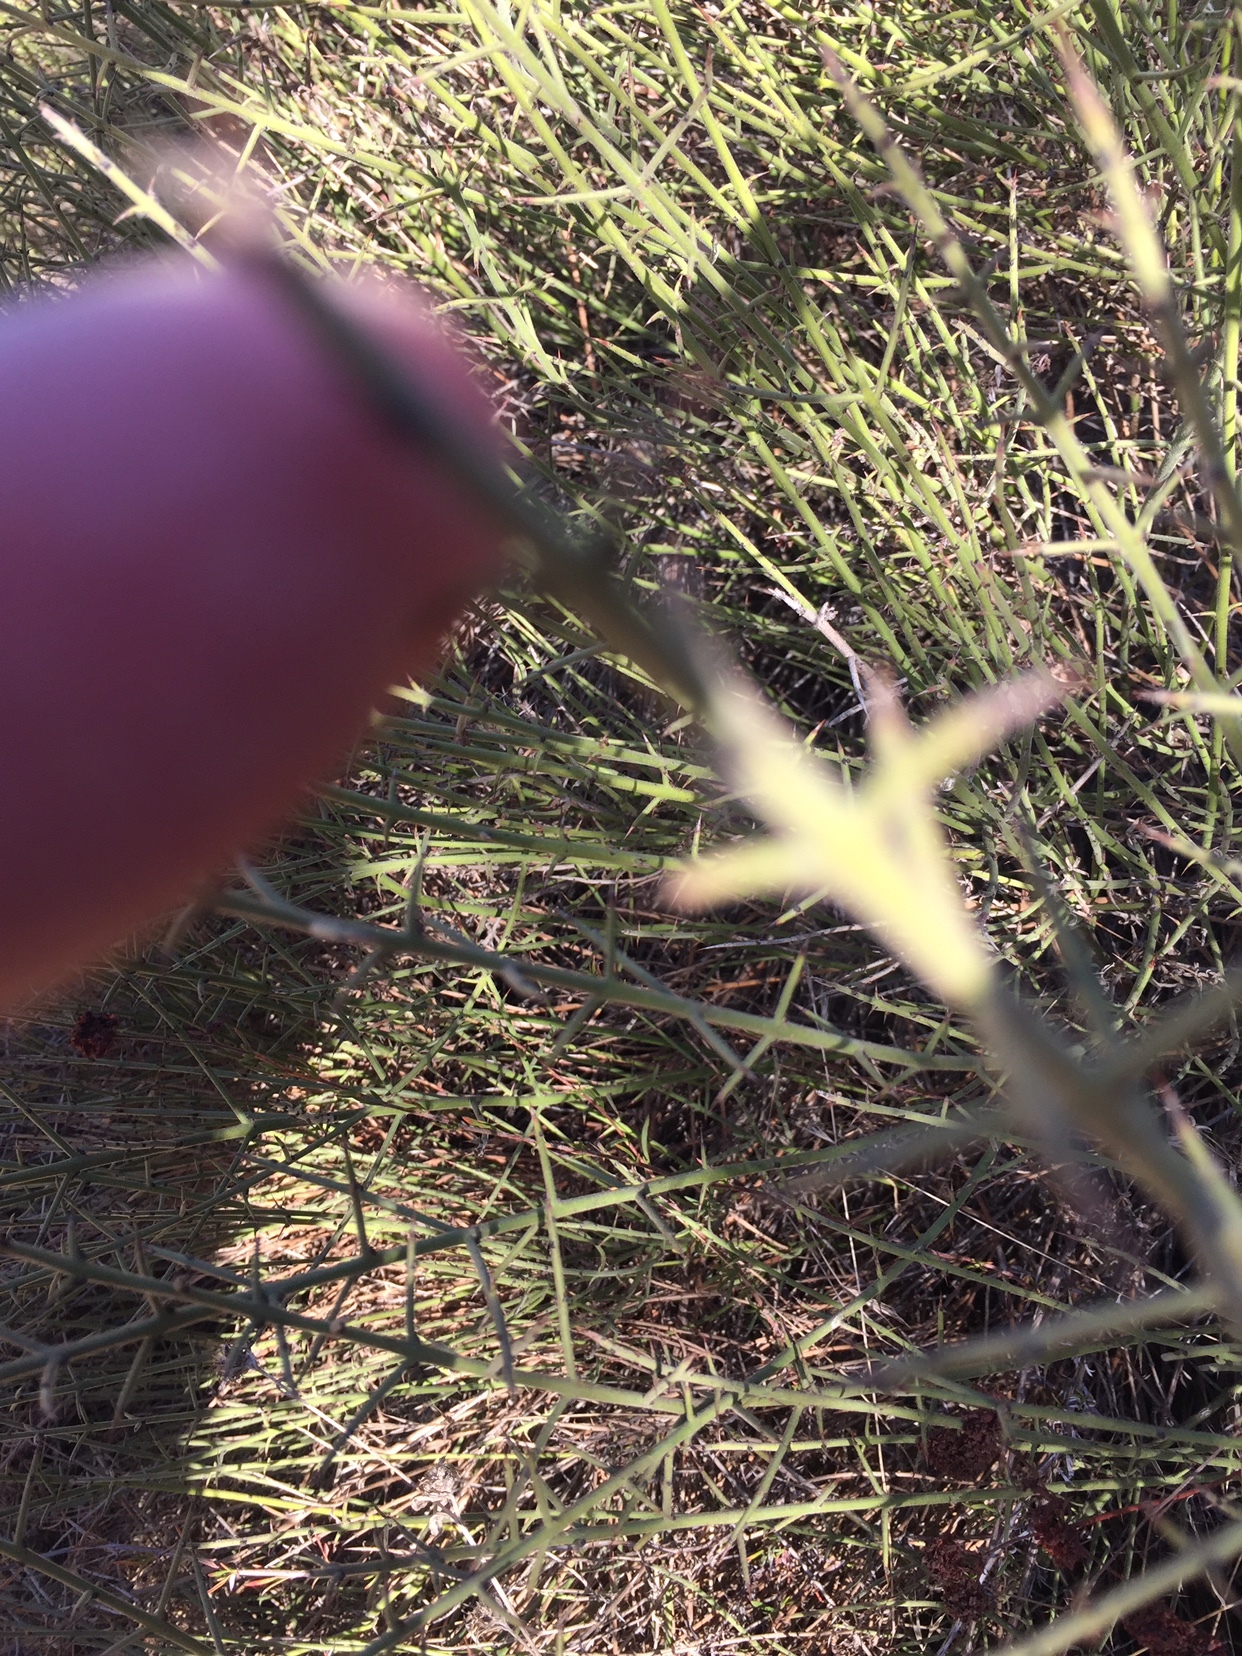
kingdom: Plantae
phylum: Tracheophyta
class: Magnoliopsida
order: Rosales
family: Rhamnaceae
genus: Adolphia
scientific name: Adolphia californica
